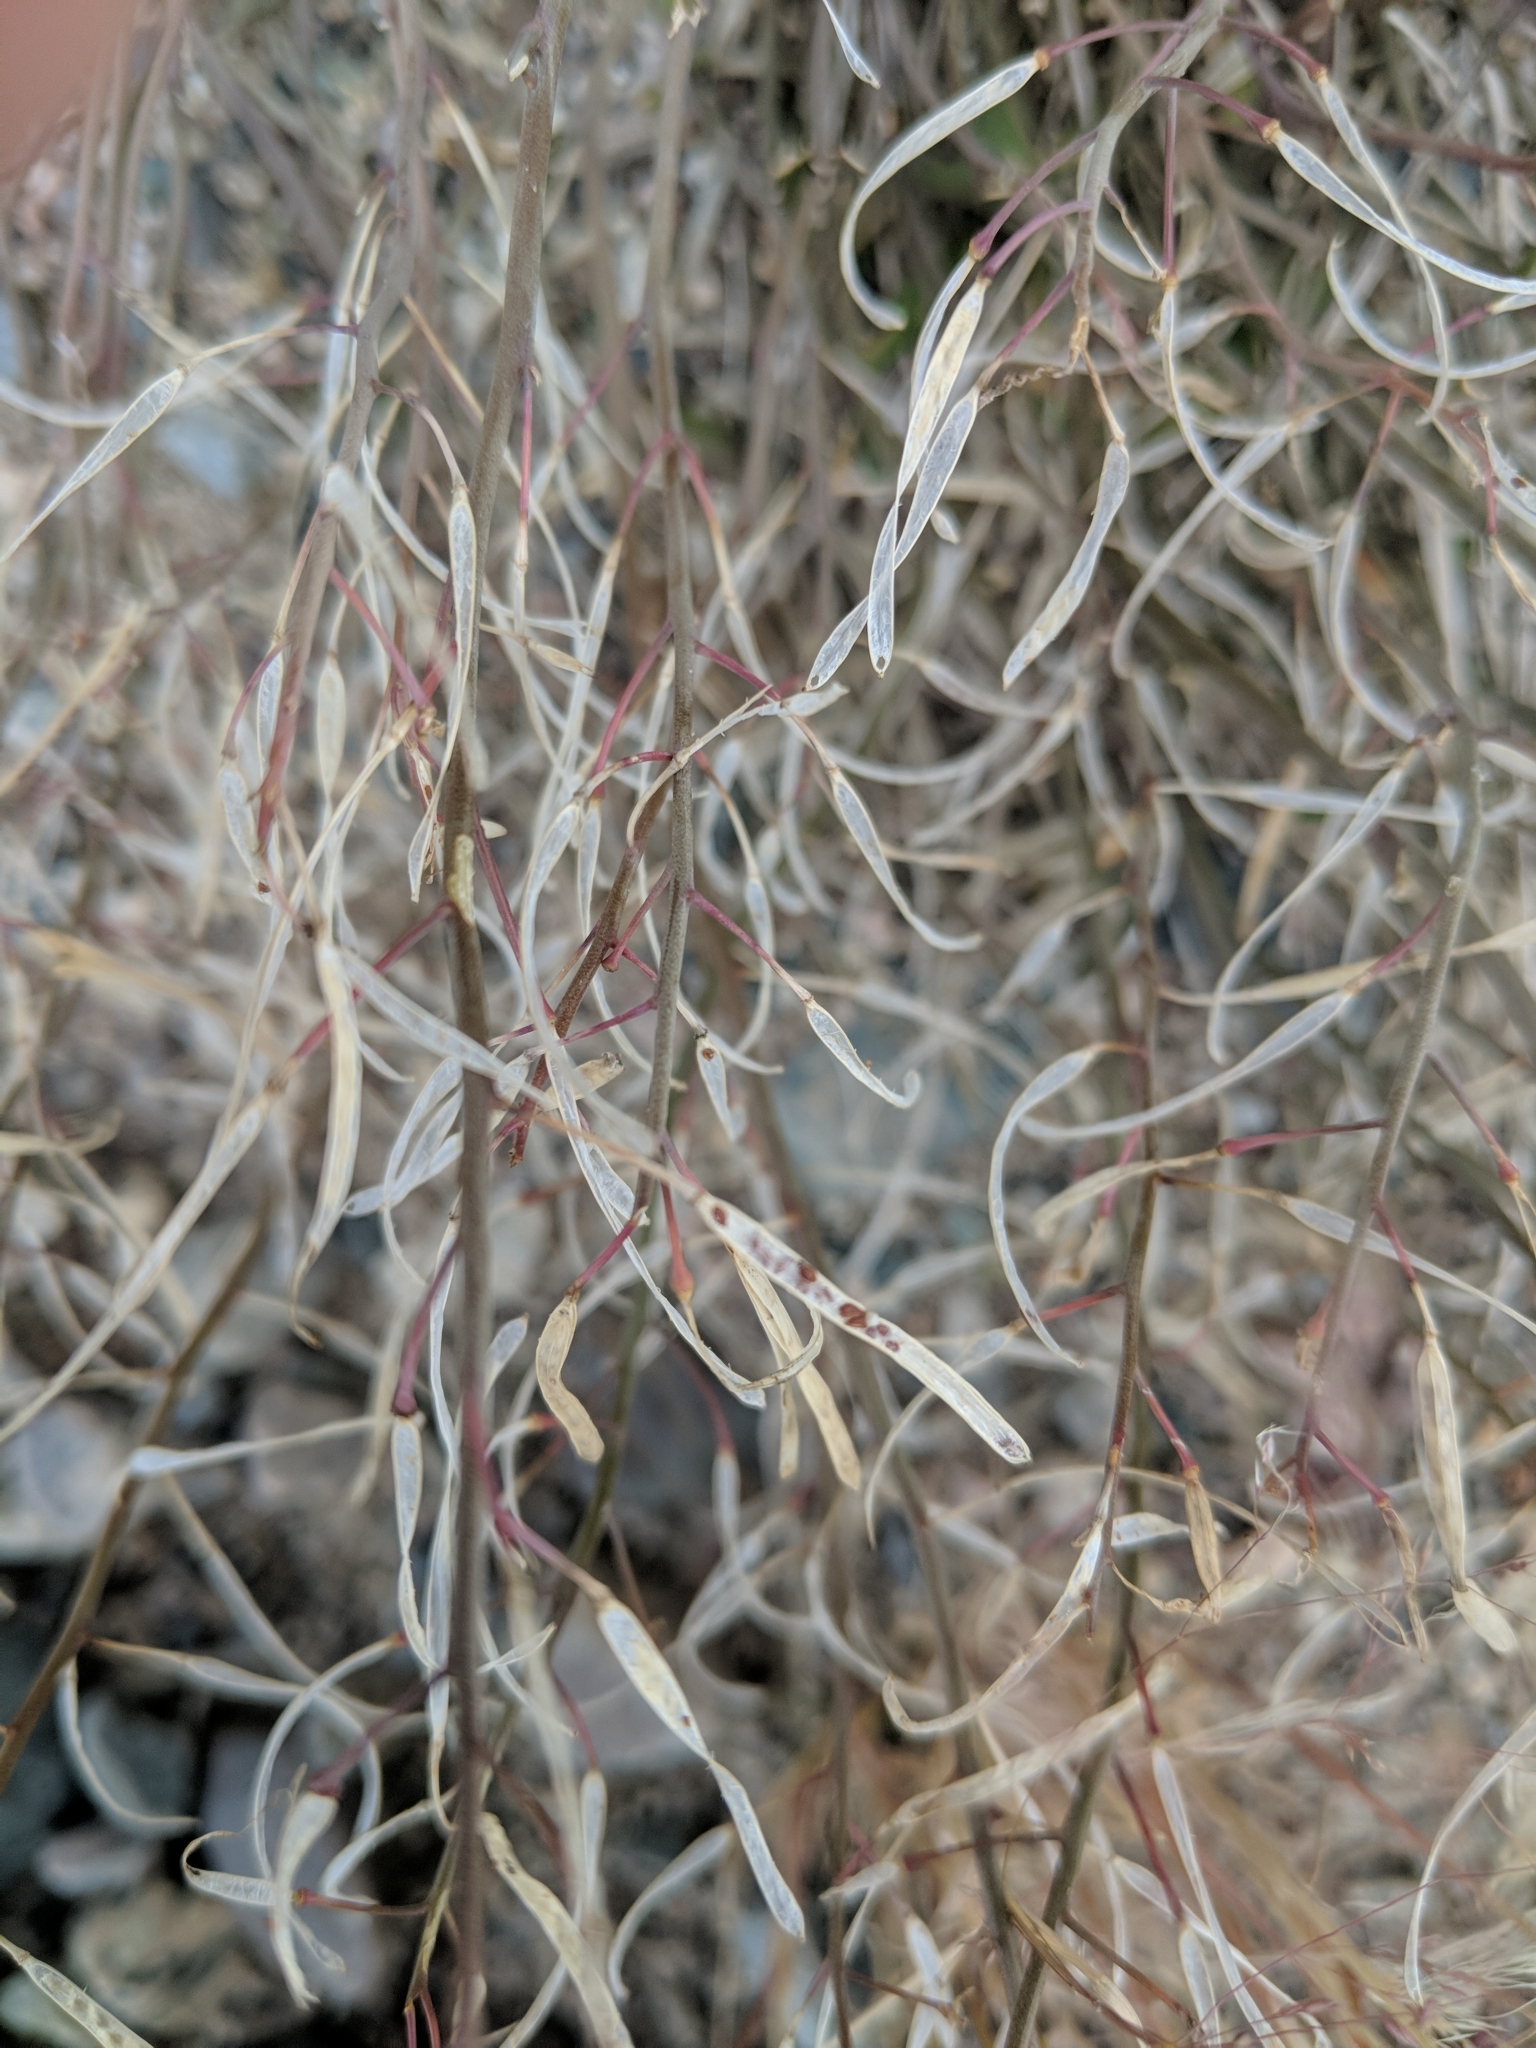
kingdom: Plantae
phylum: Tracheophyta
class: Magnoliopsida
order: Brassicales
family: Brassicaceae
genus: Arabidopsis
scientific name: Arabidopsis arenicola
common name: Arctic rockcress
